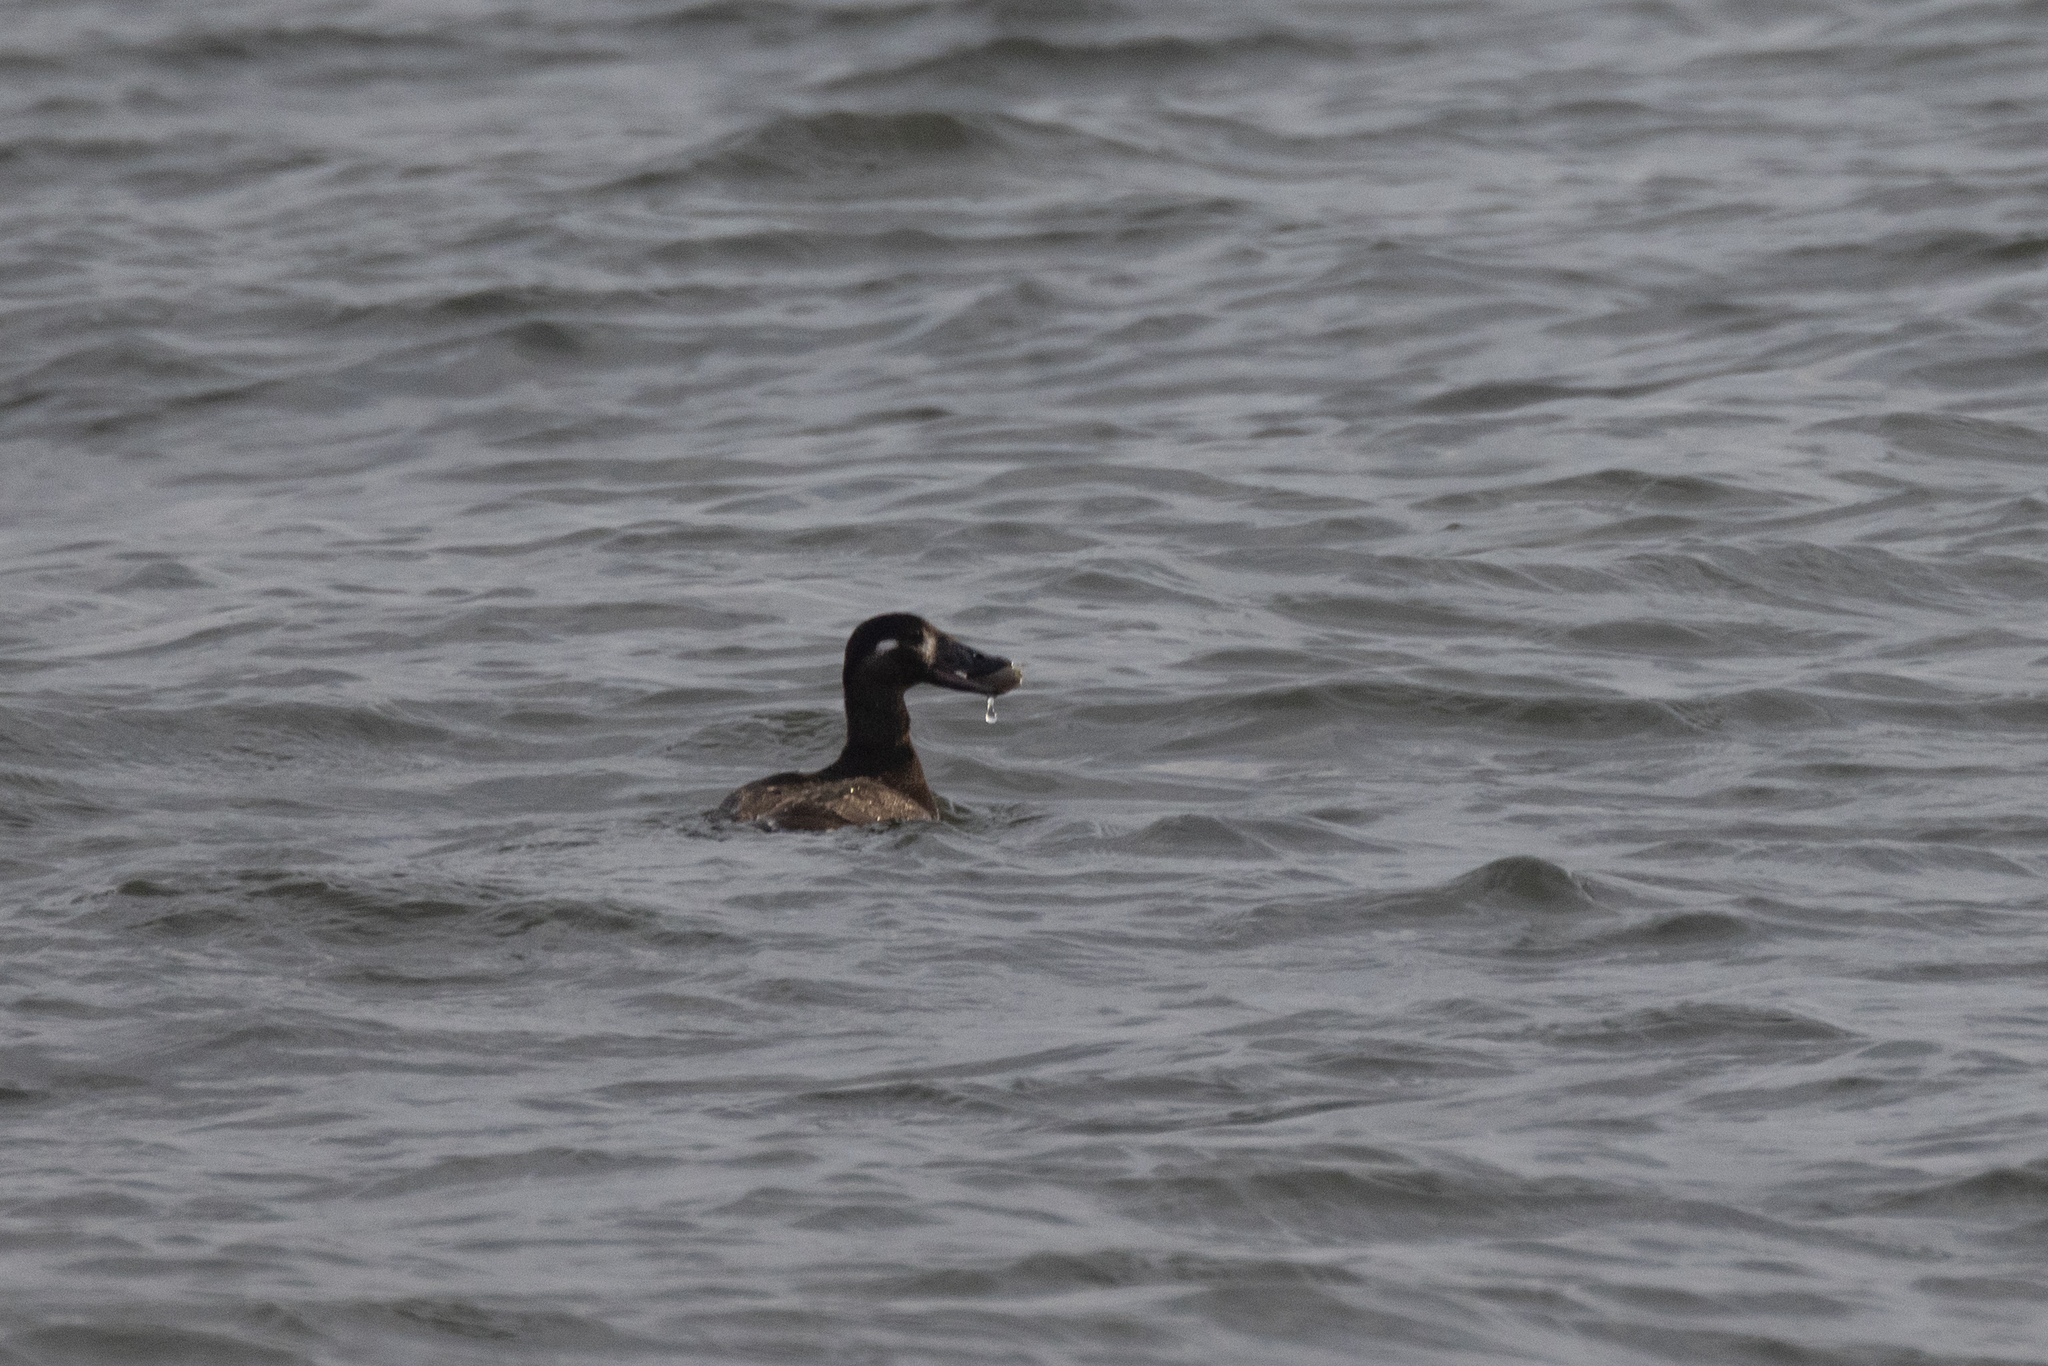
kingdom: Animalia
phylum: Chordata
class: Aves
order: Anseriformes
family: Anatidae
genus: Melanitta
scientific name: Melanitta perspicillata
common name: Surf scoter
